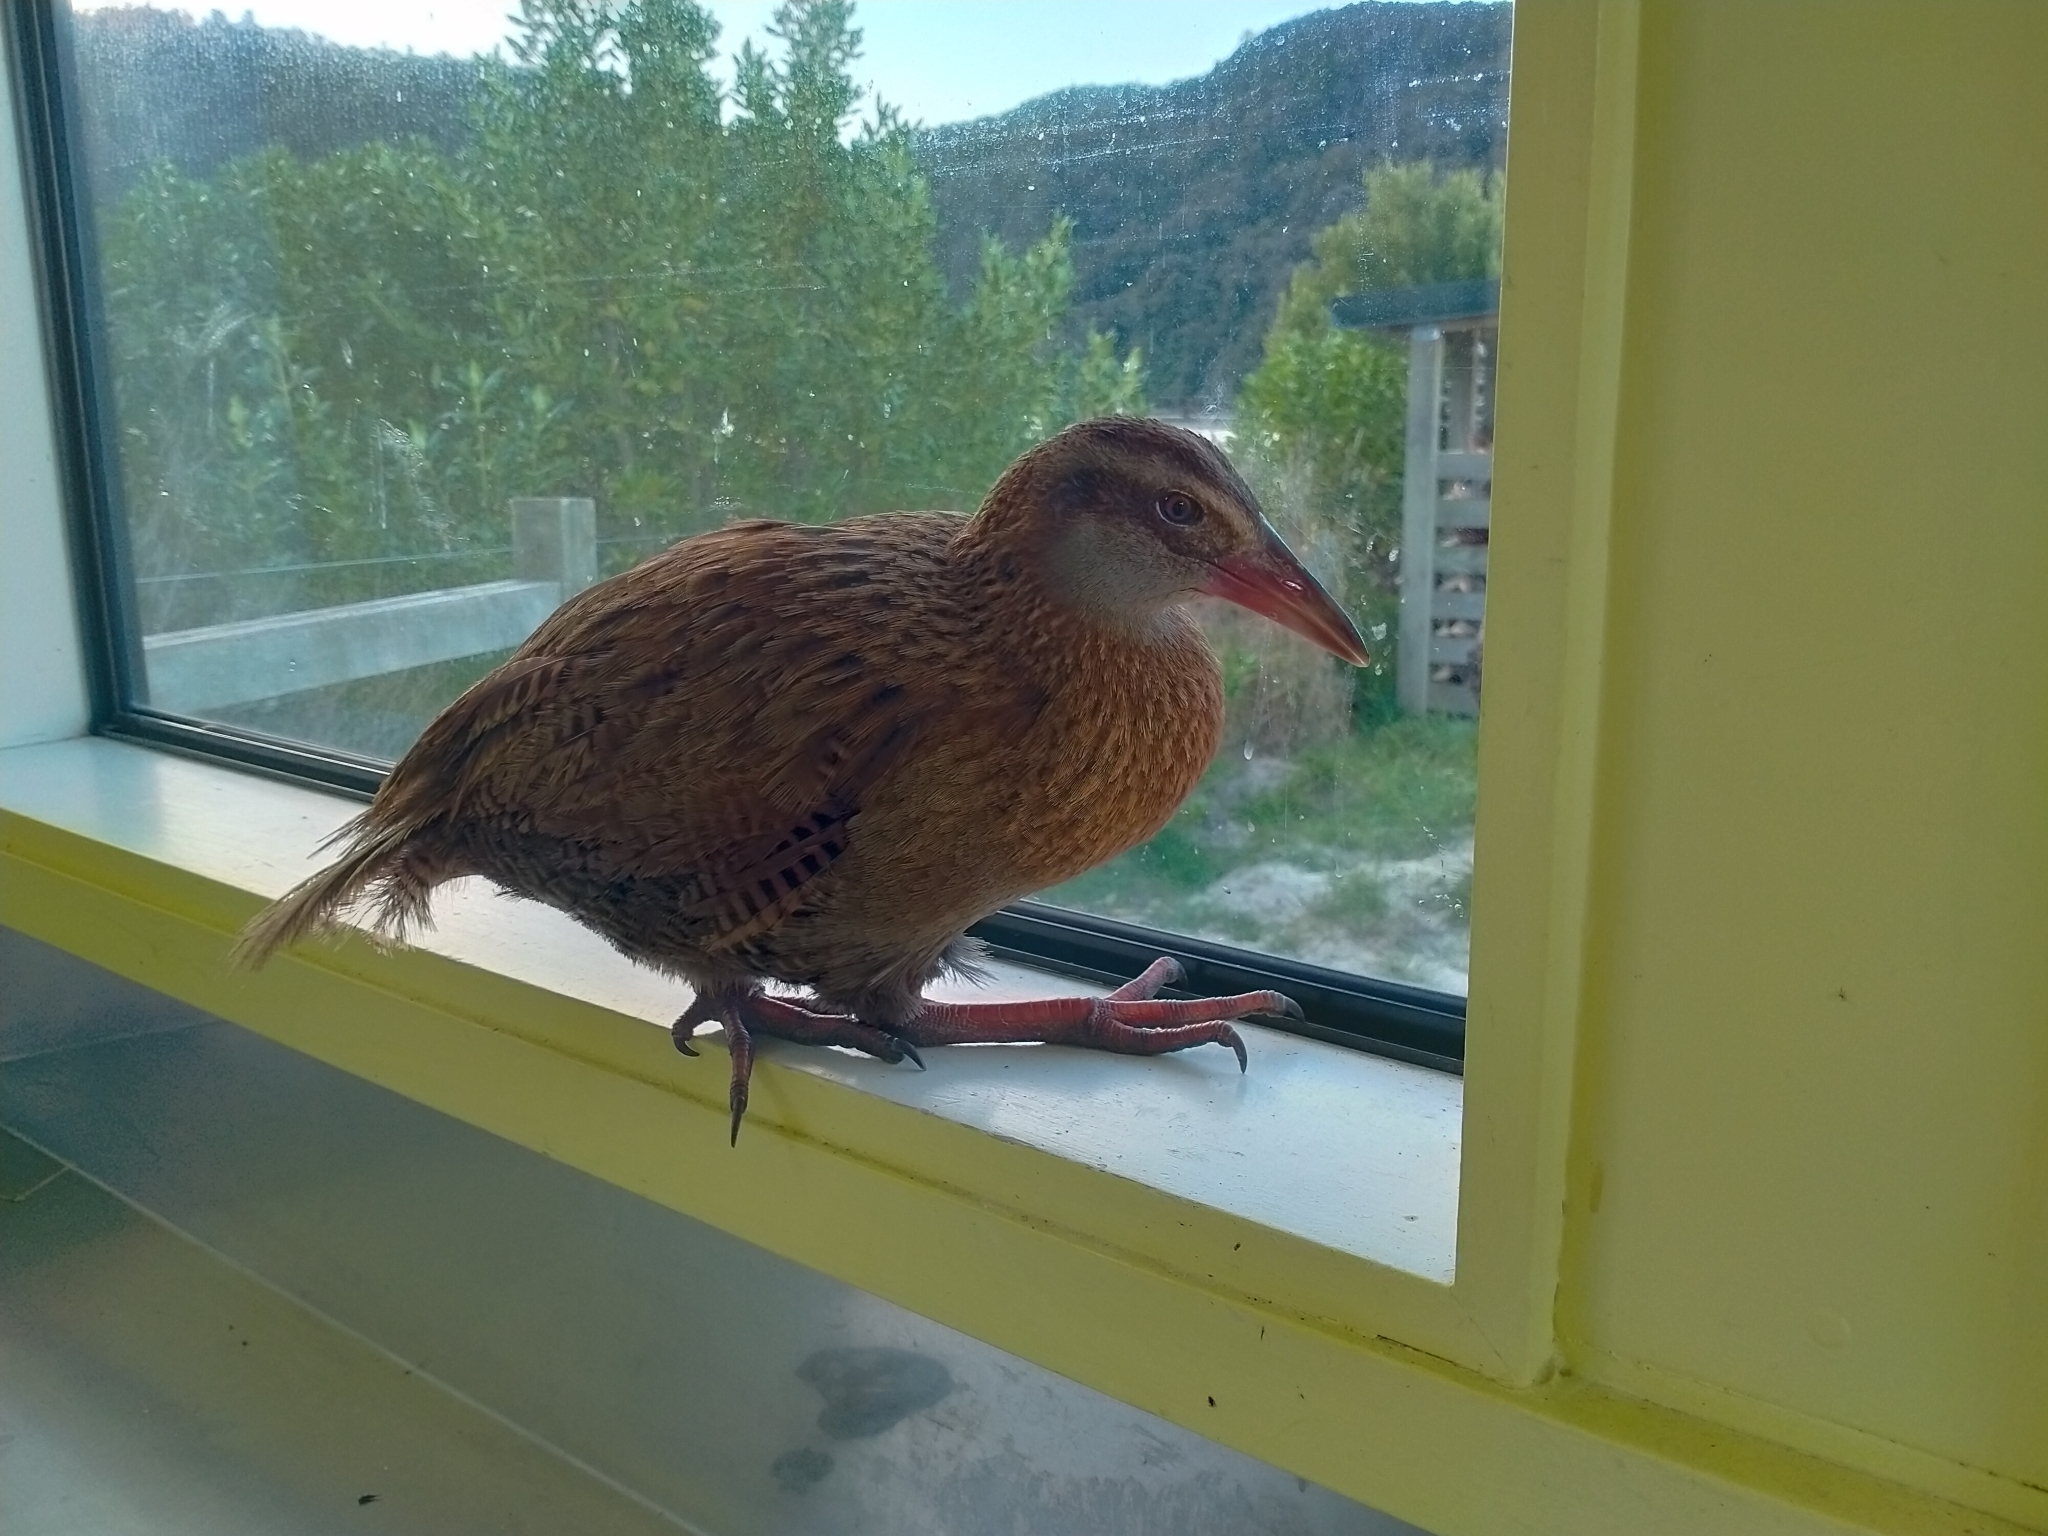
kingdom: Animalia
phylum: Chordata
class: Aves
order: Gruiformes
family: Rallidae
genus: Gallirallus
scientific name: Gallirallus australis
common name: Weka
